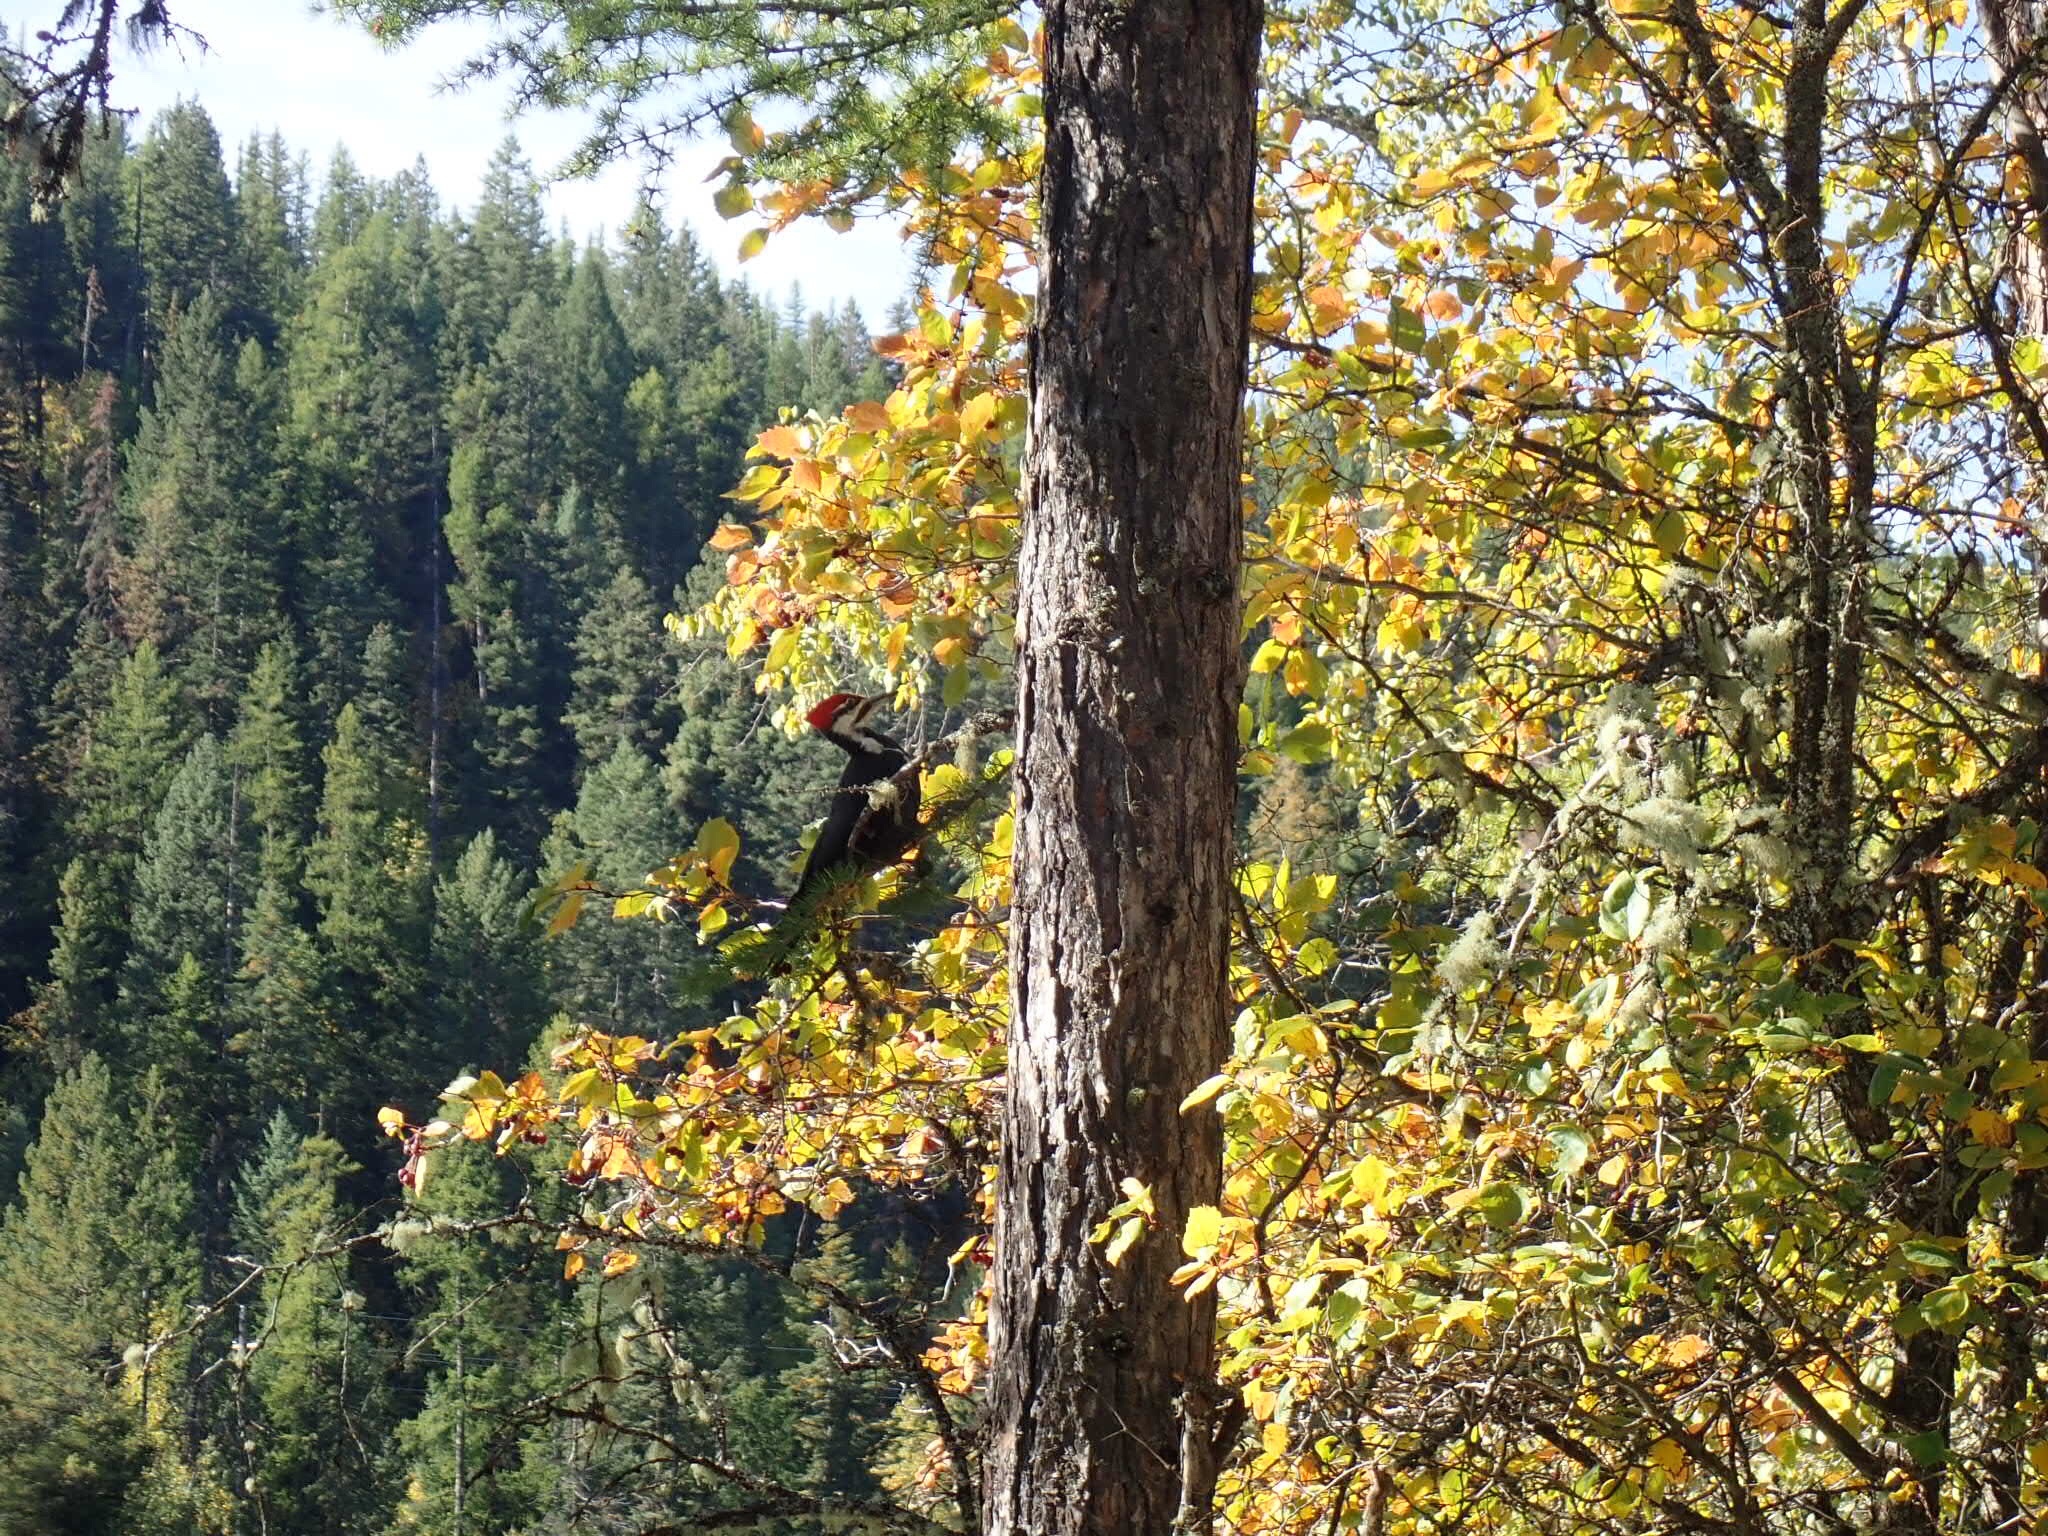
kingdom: Animalia
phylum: Chordata
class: Aves
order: Piciformes
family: Picidae
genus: Dryocopus
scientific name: Dryocopus pileatus
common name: Pileated woodpecker
